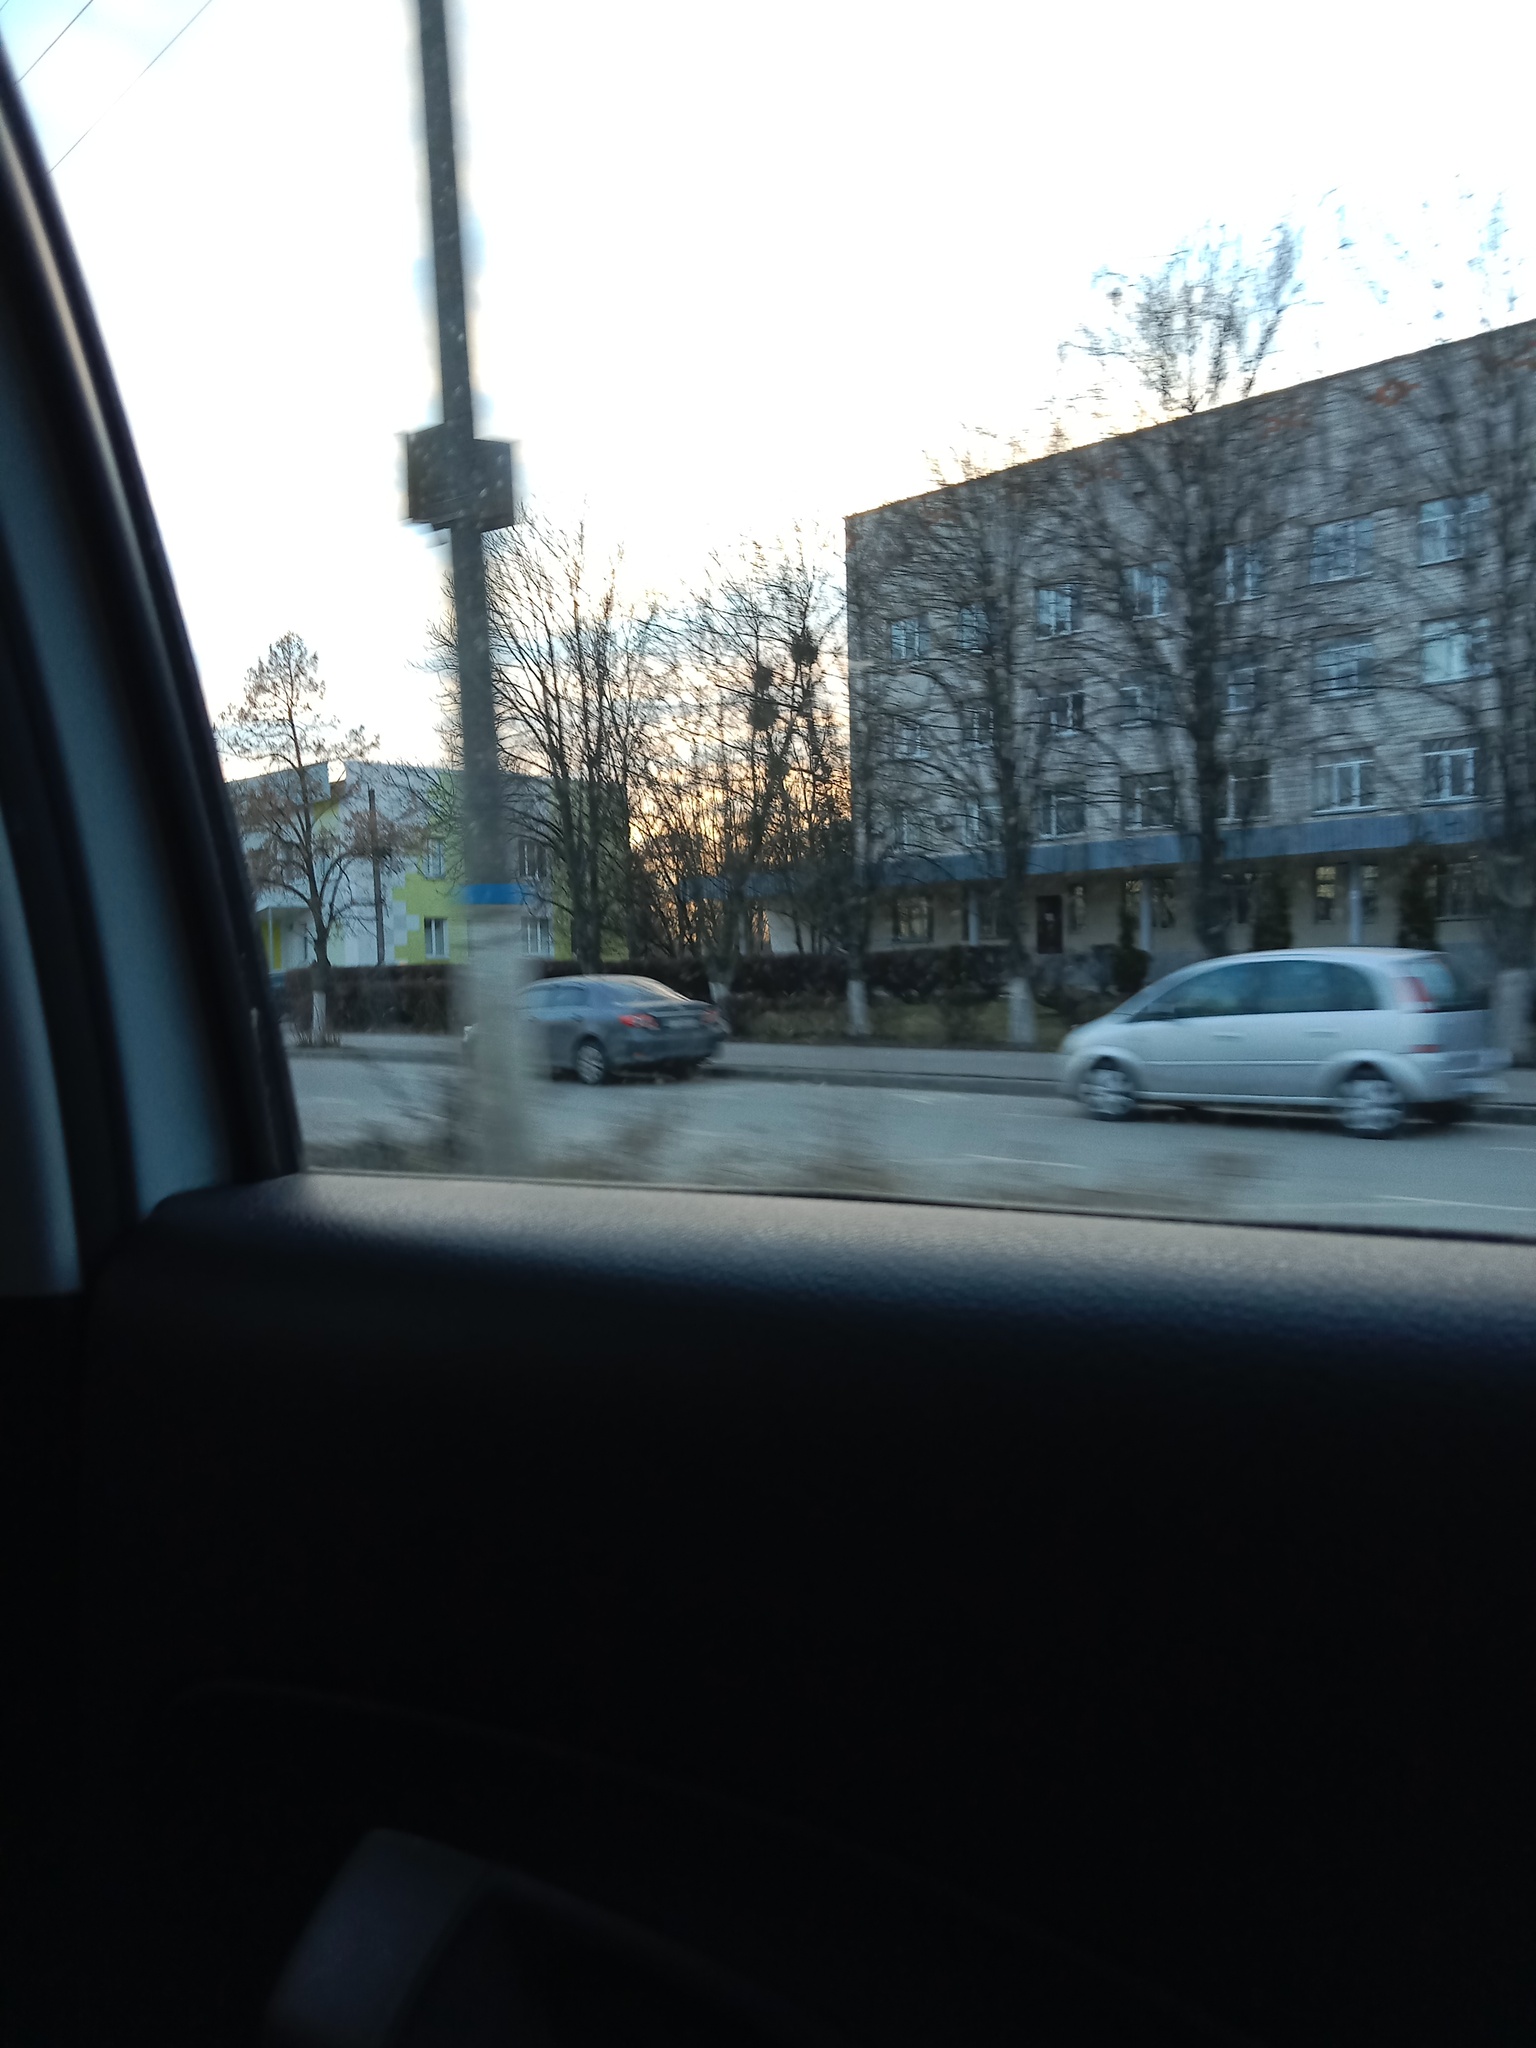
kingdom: Plantae
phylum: Tracheophyta
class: Magnoliopsida
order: Santalales
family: Viscaceae
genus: Viscum
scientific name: Viscum album
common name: Mistletoe
